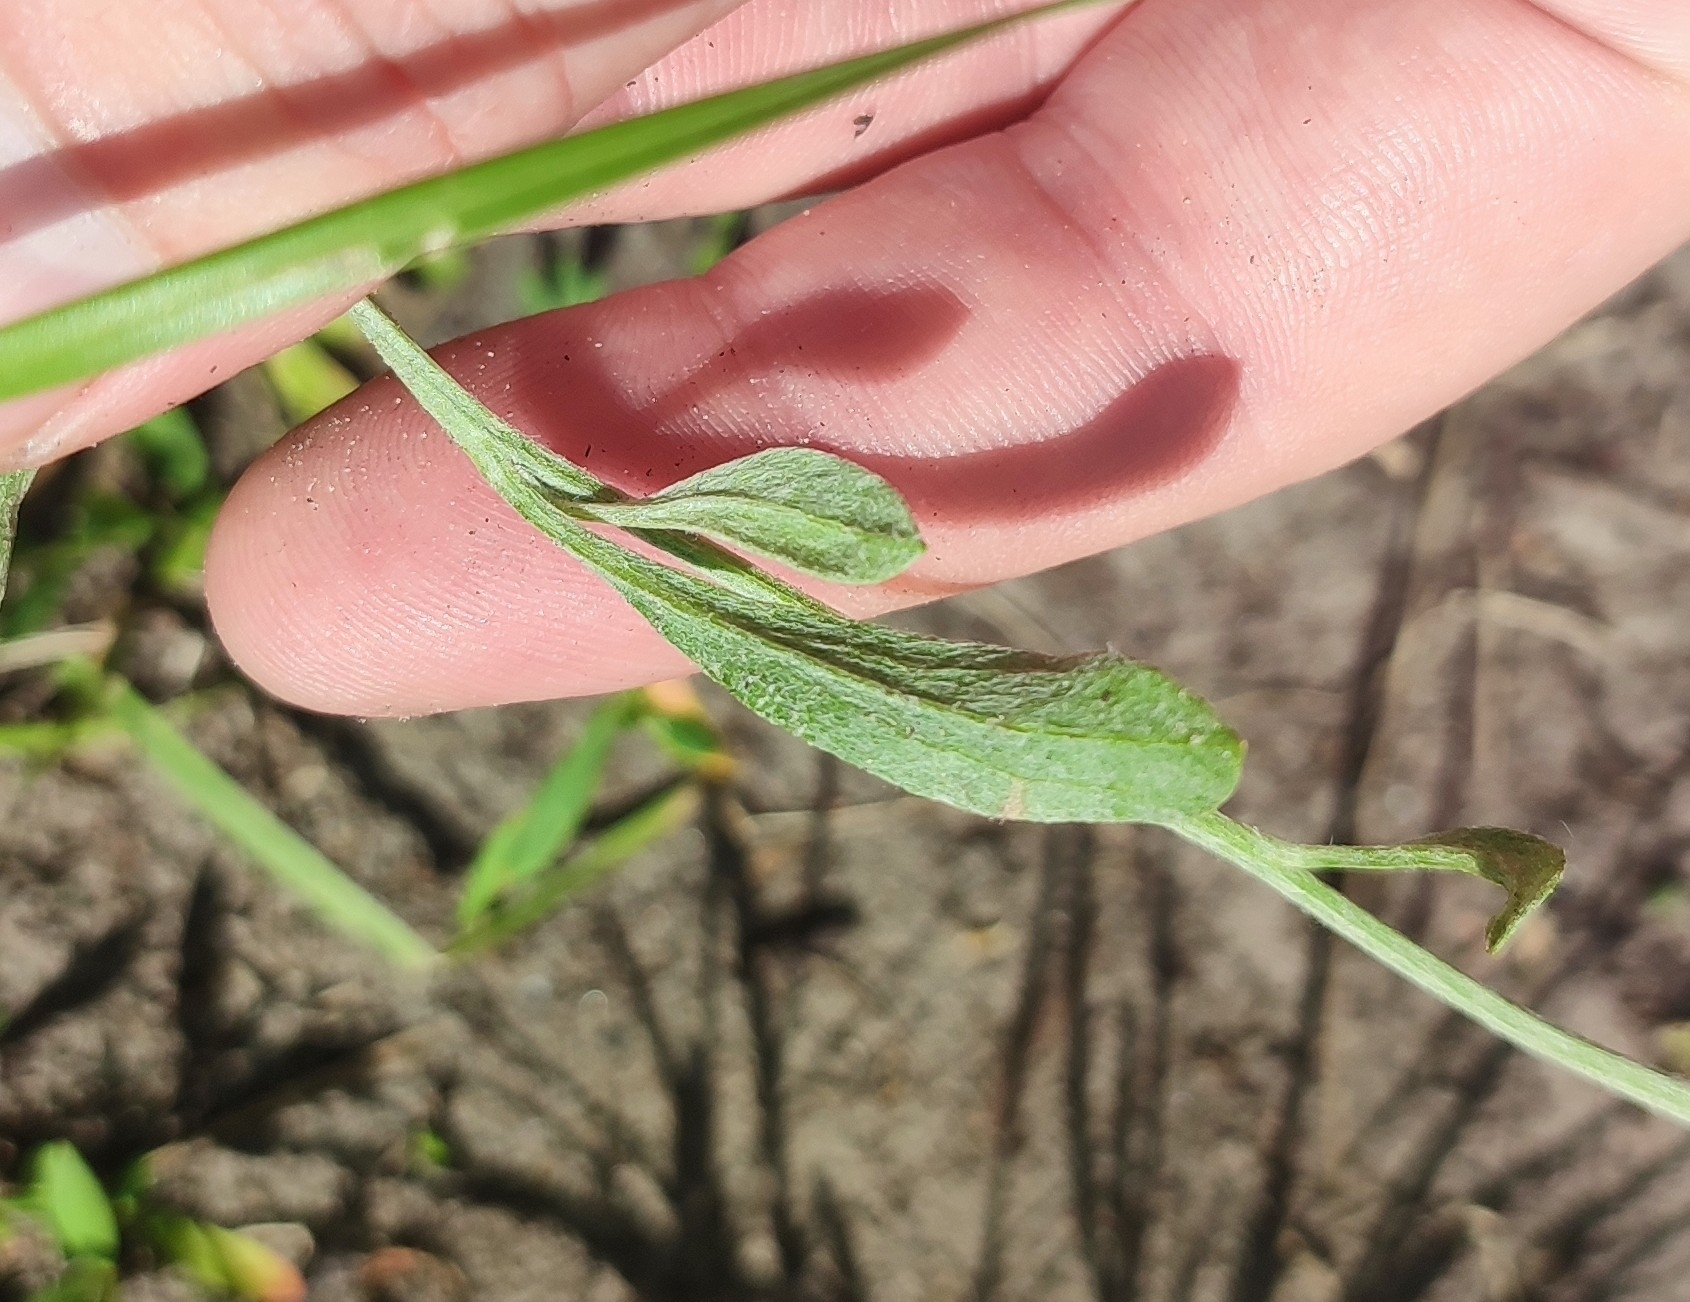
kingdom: Plantae
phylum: Tracheophyta
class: Magnoliopsida
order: Asterales
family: Asteraceae
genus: Psephellus
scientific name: Psephellus sumensis
